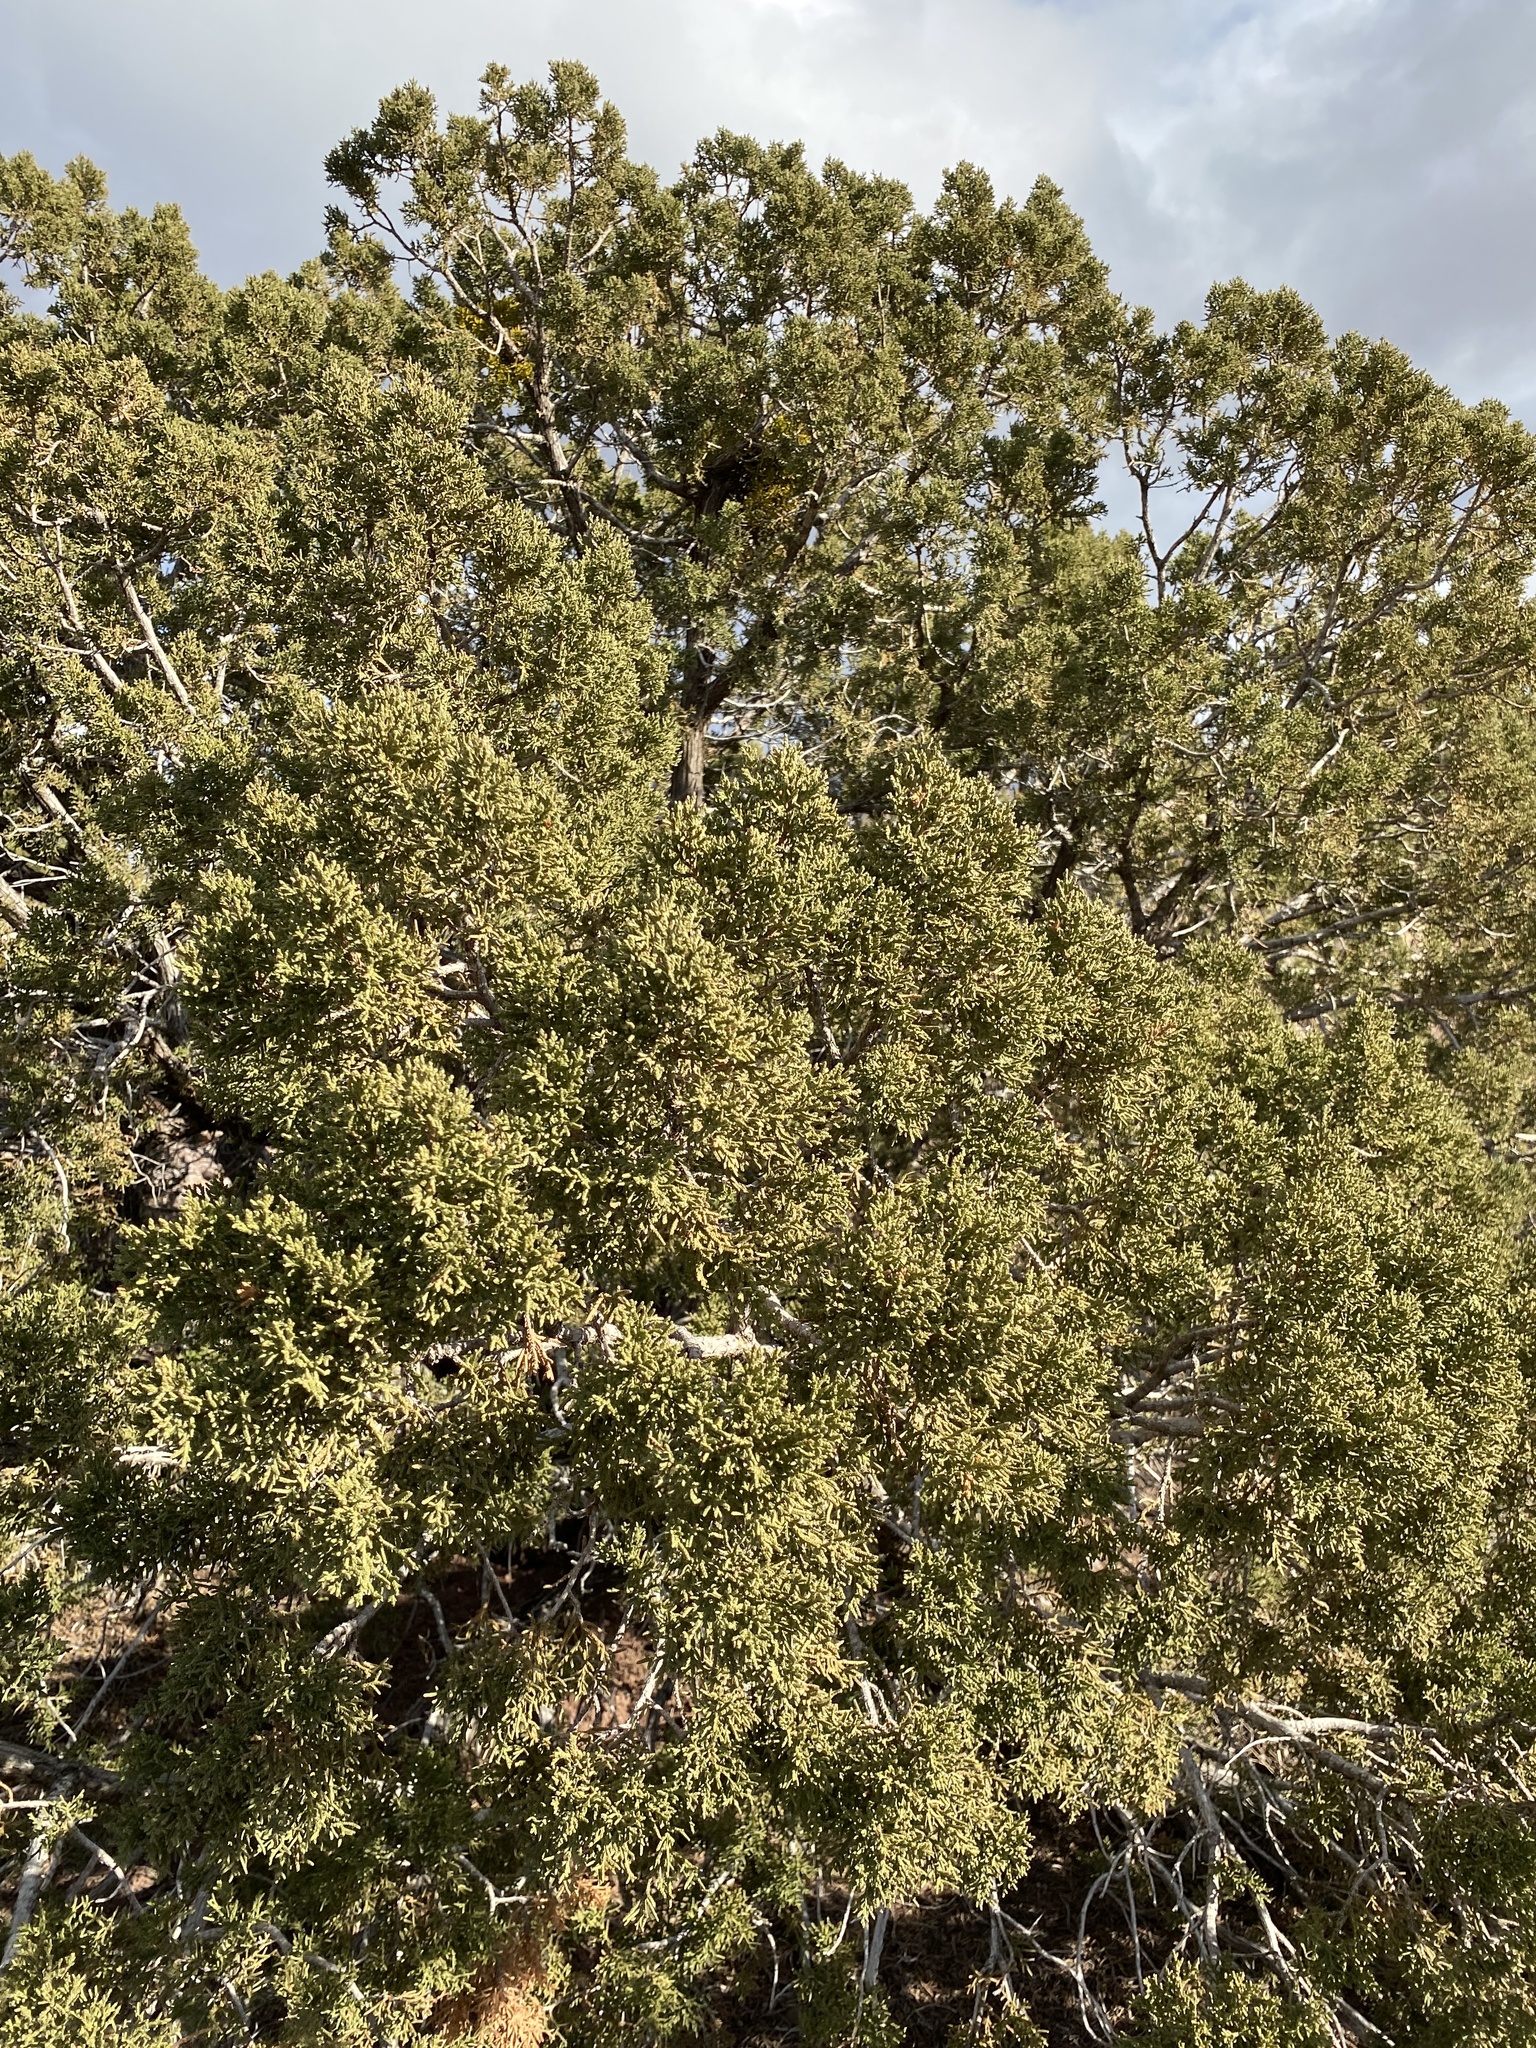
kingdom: Plantae
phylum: Tracheophyta
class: Pinopsida
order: Pinales
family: Cupressaceae
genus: Juniperus
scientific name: Juniperus monosperma
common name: One-seed juniper
